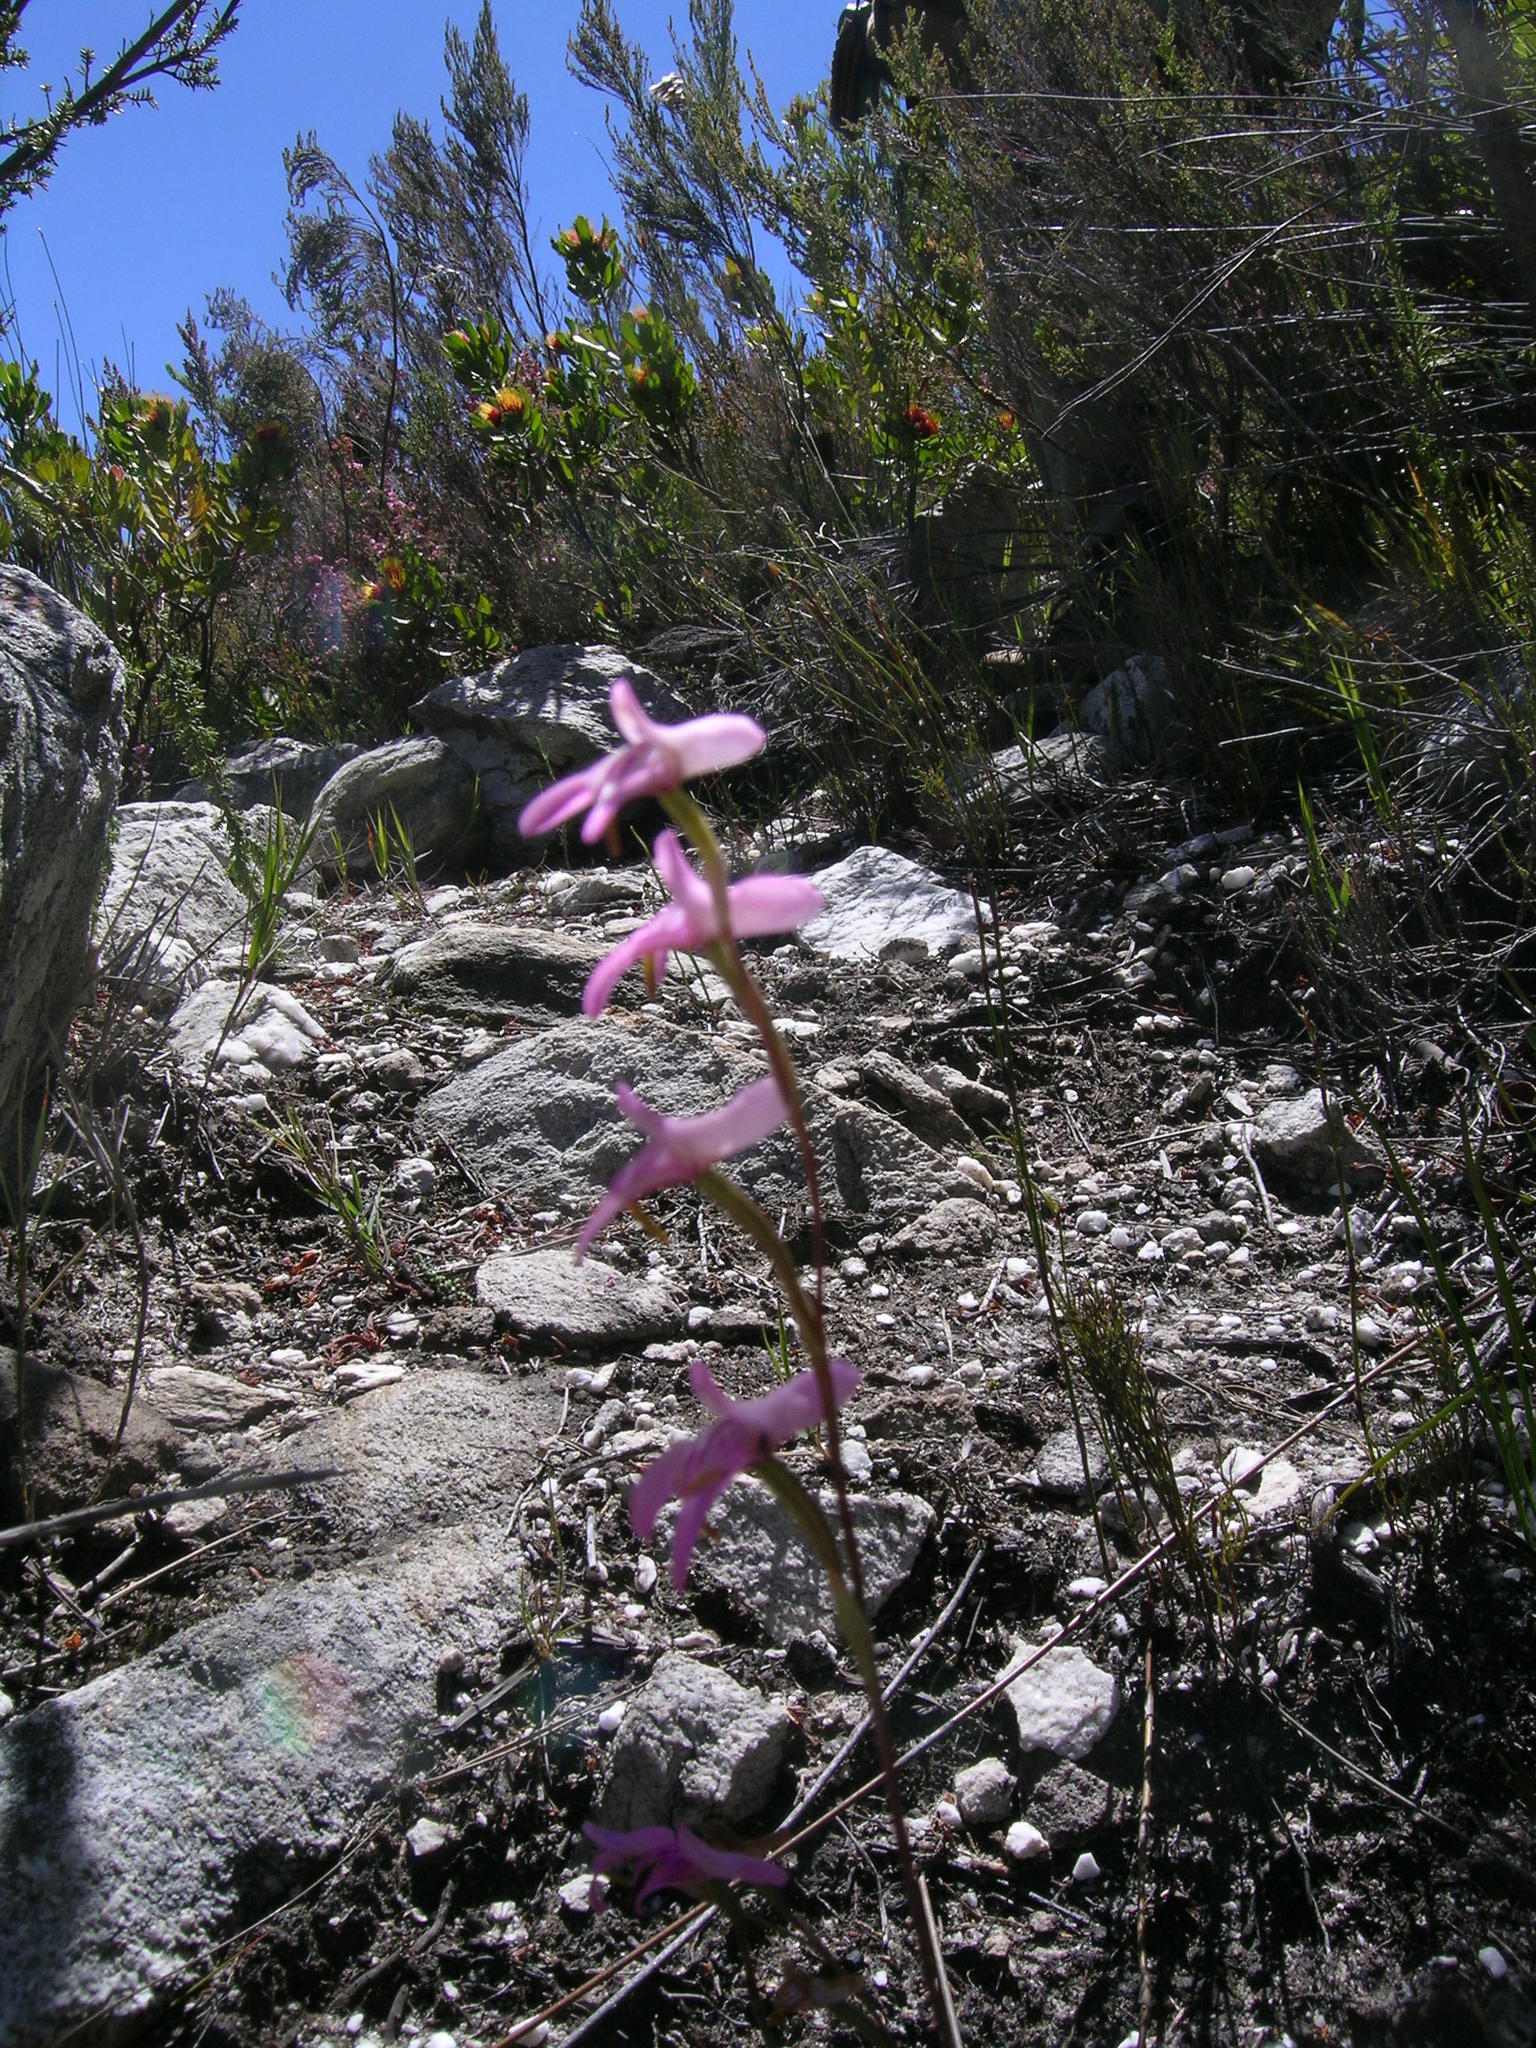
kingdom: Plantae
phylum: Tracheophyta
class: Liliopsida
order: Asparagales
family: Orchidaceae
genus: Disa
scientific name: Disa inflexa
